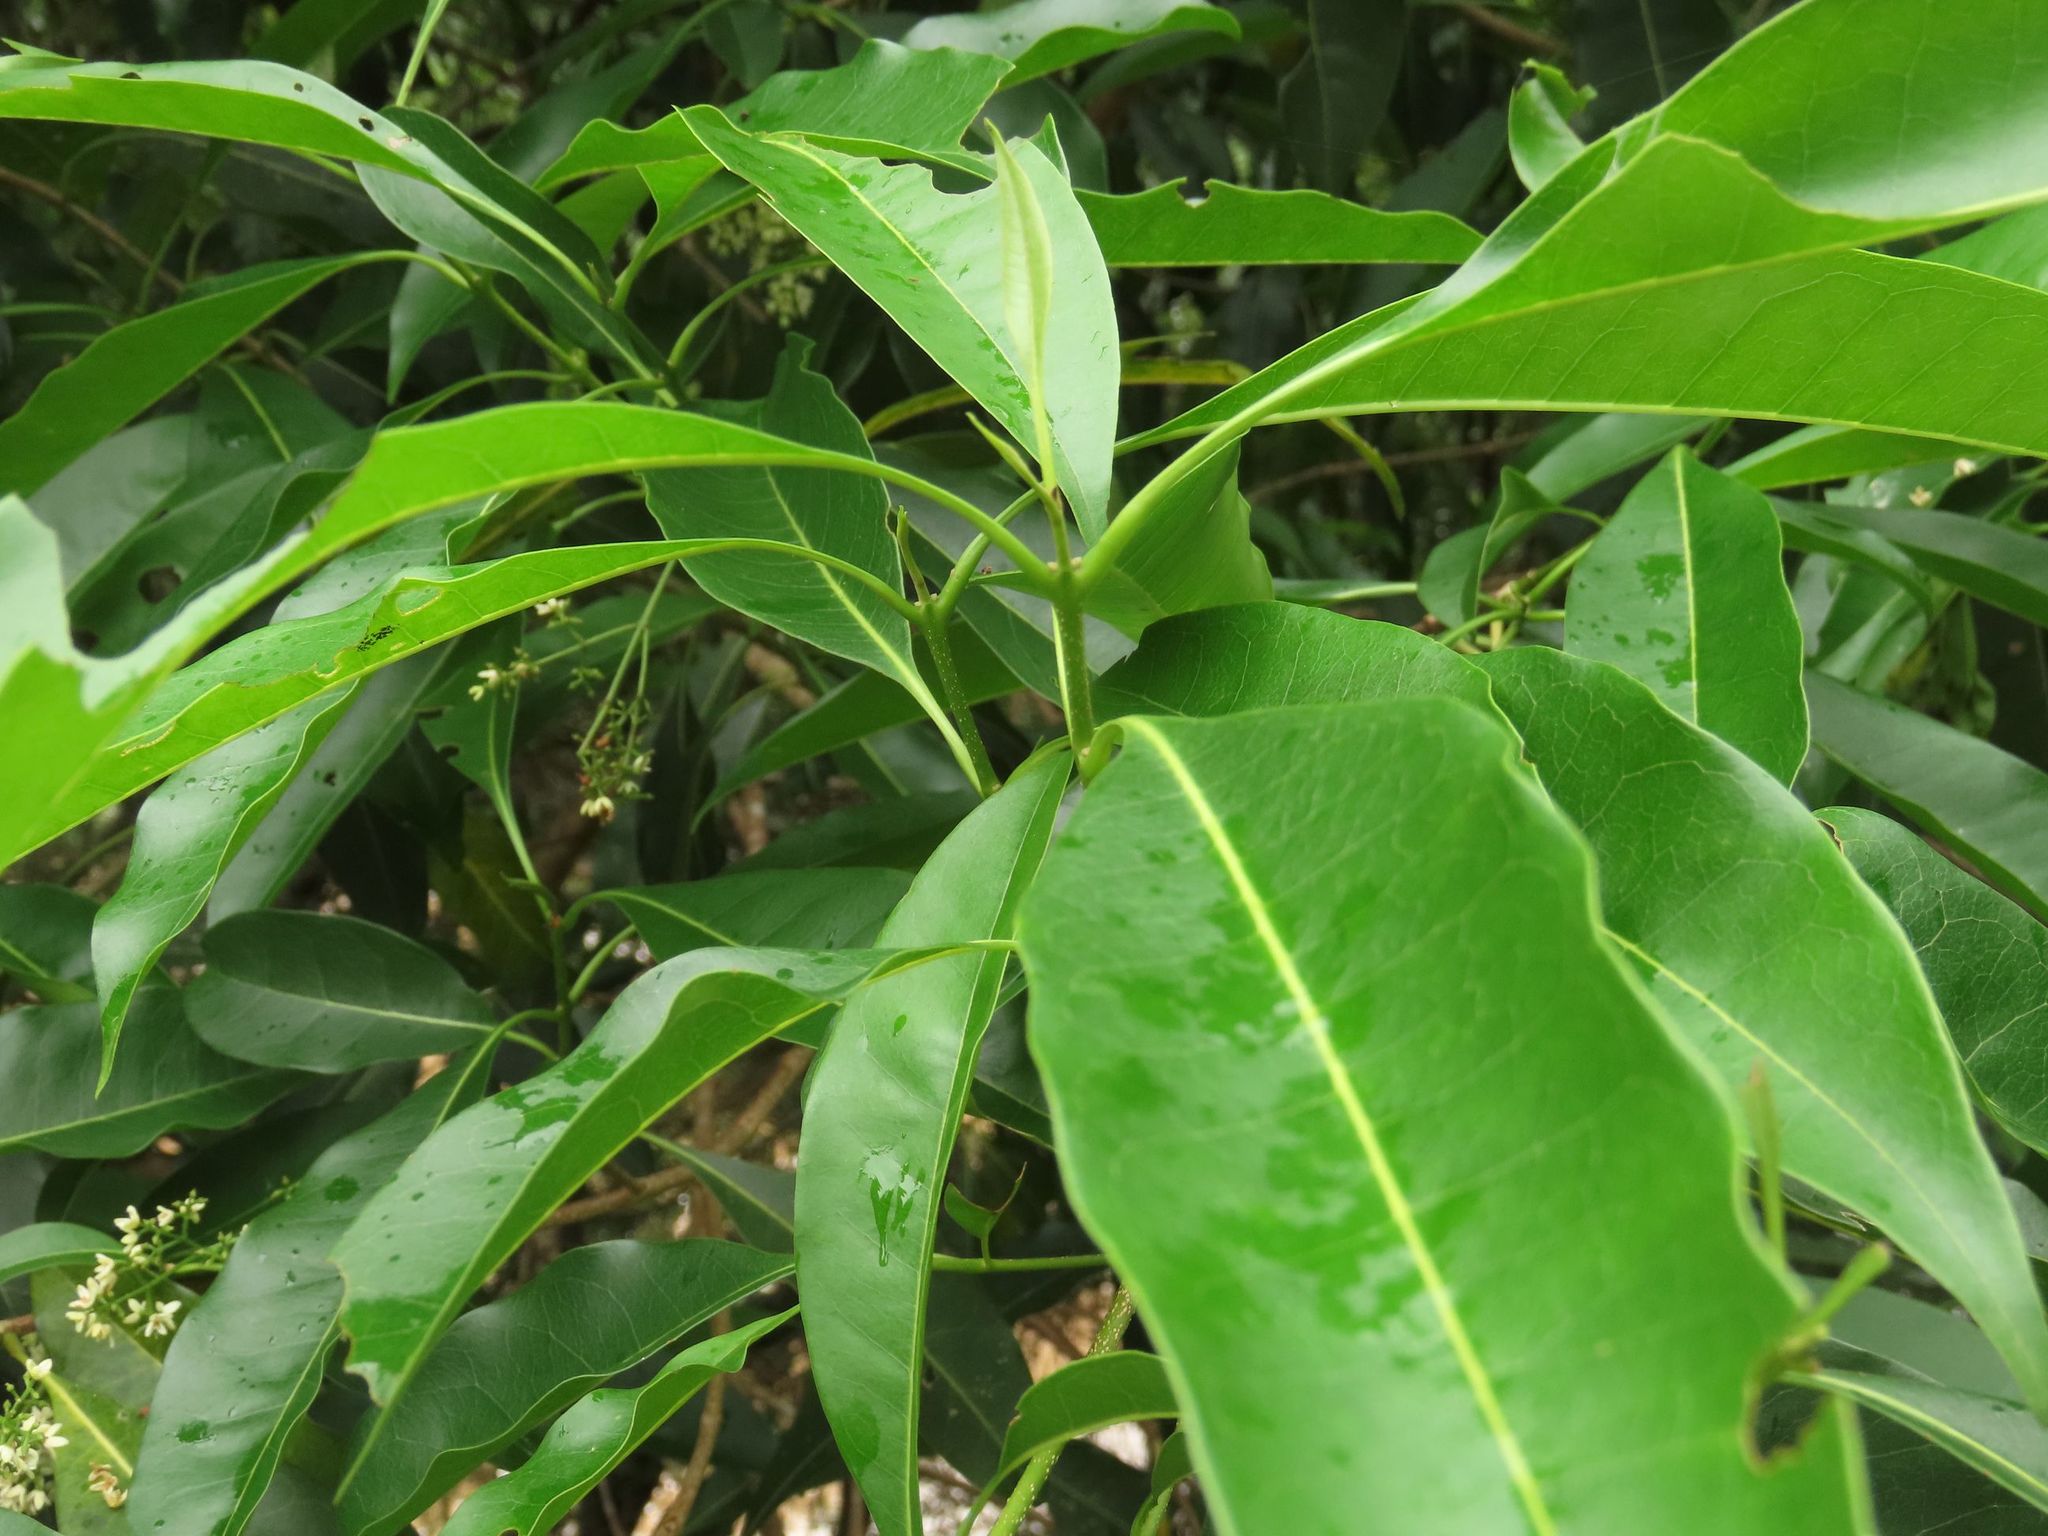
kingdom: Plantae
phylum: Tracheophyta
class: Magnoliopsida
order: Lamiales
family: Oleaceae
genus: Chionanthus
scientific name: Chionanthus ramiflorus
